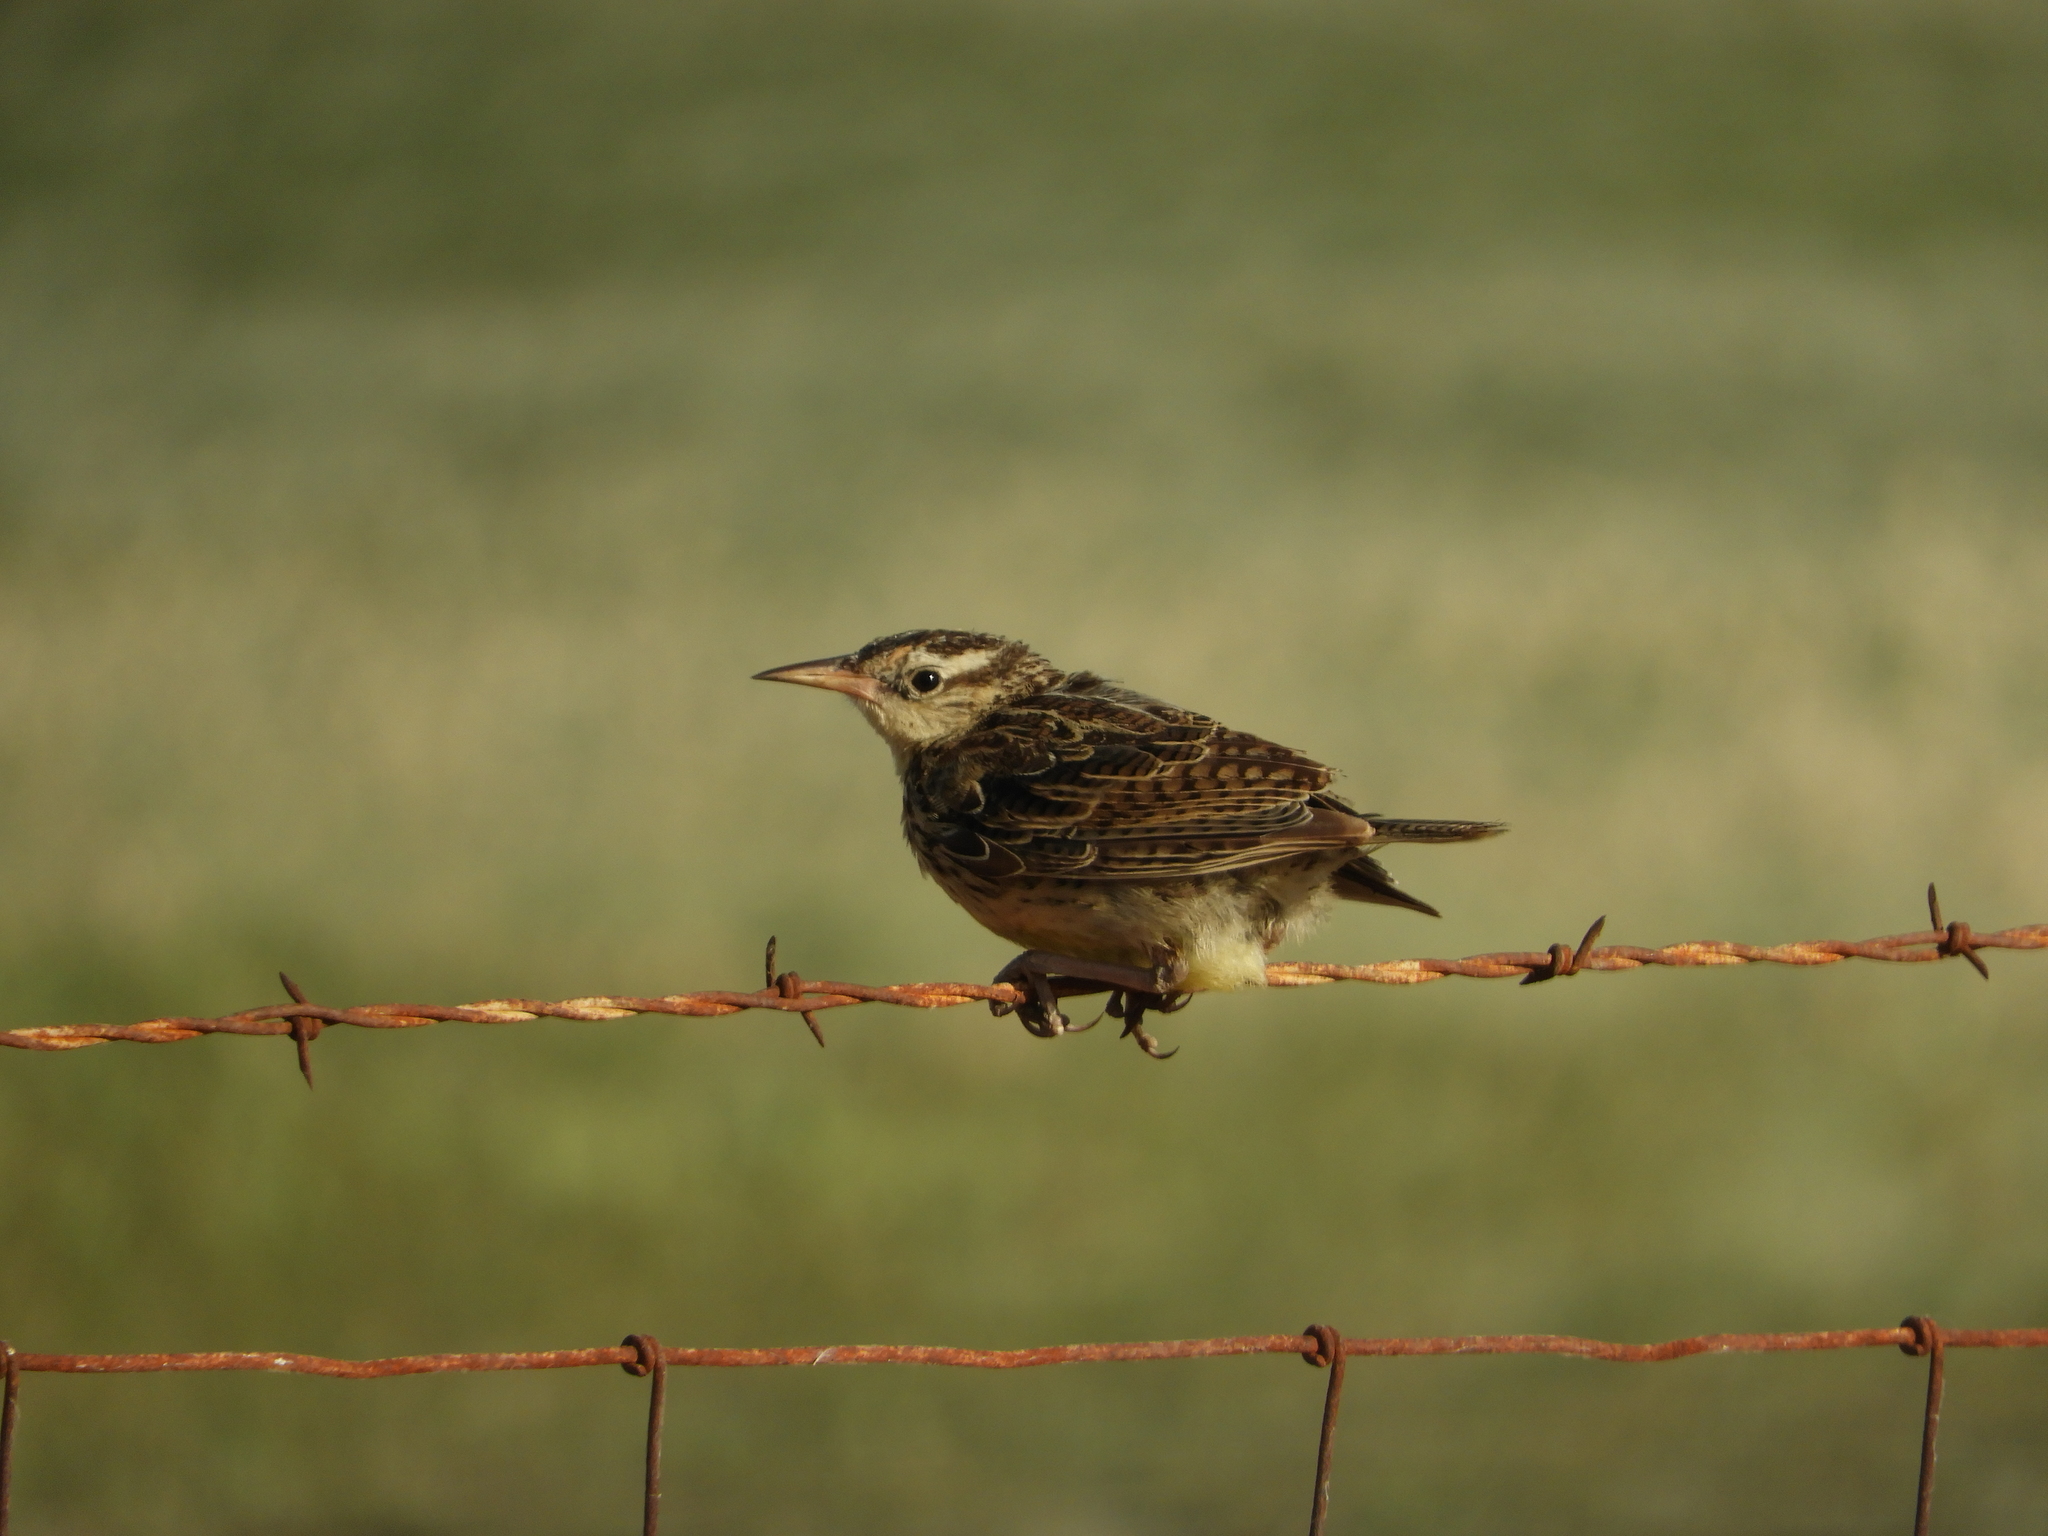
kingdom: Animalia
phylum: Chordata
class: Aves
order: Passeriformes
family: Icteridae
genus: Sturnella
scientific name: Sturnella neglecta
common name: Western meadowlark
